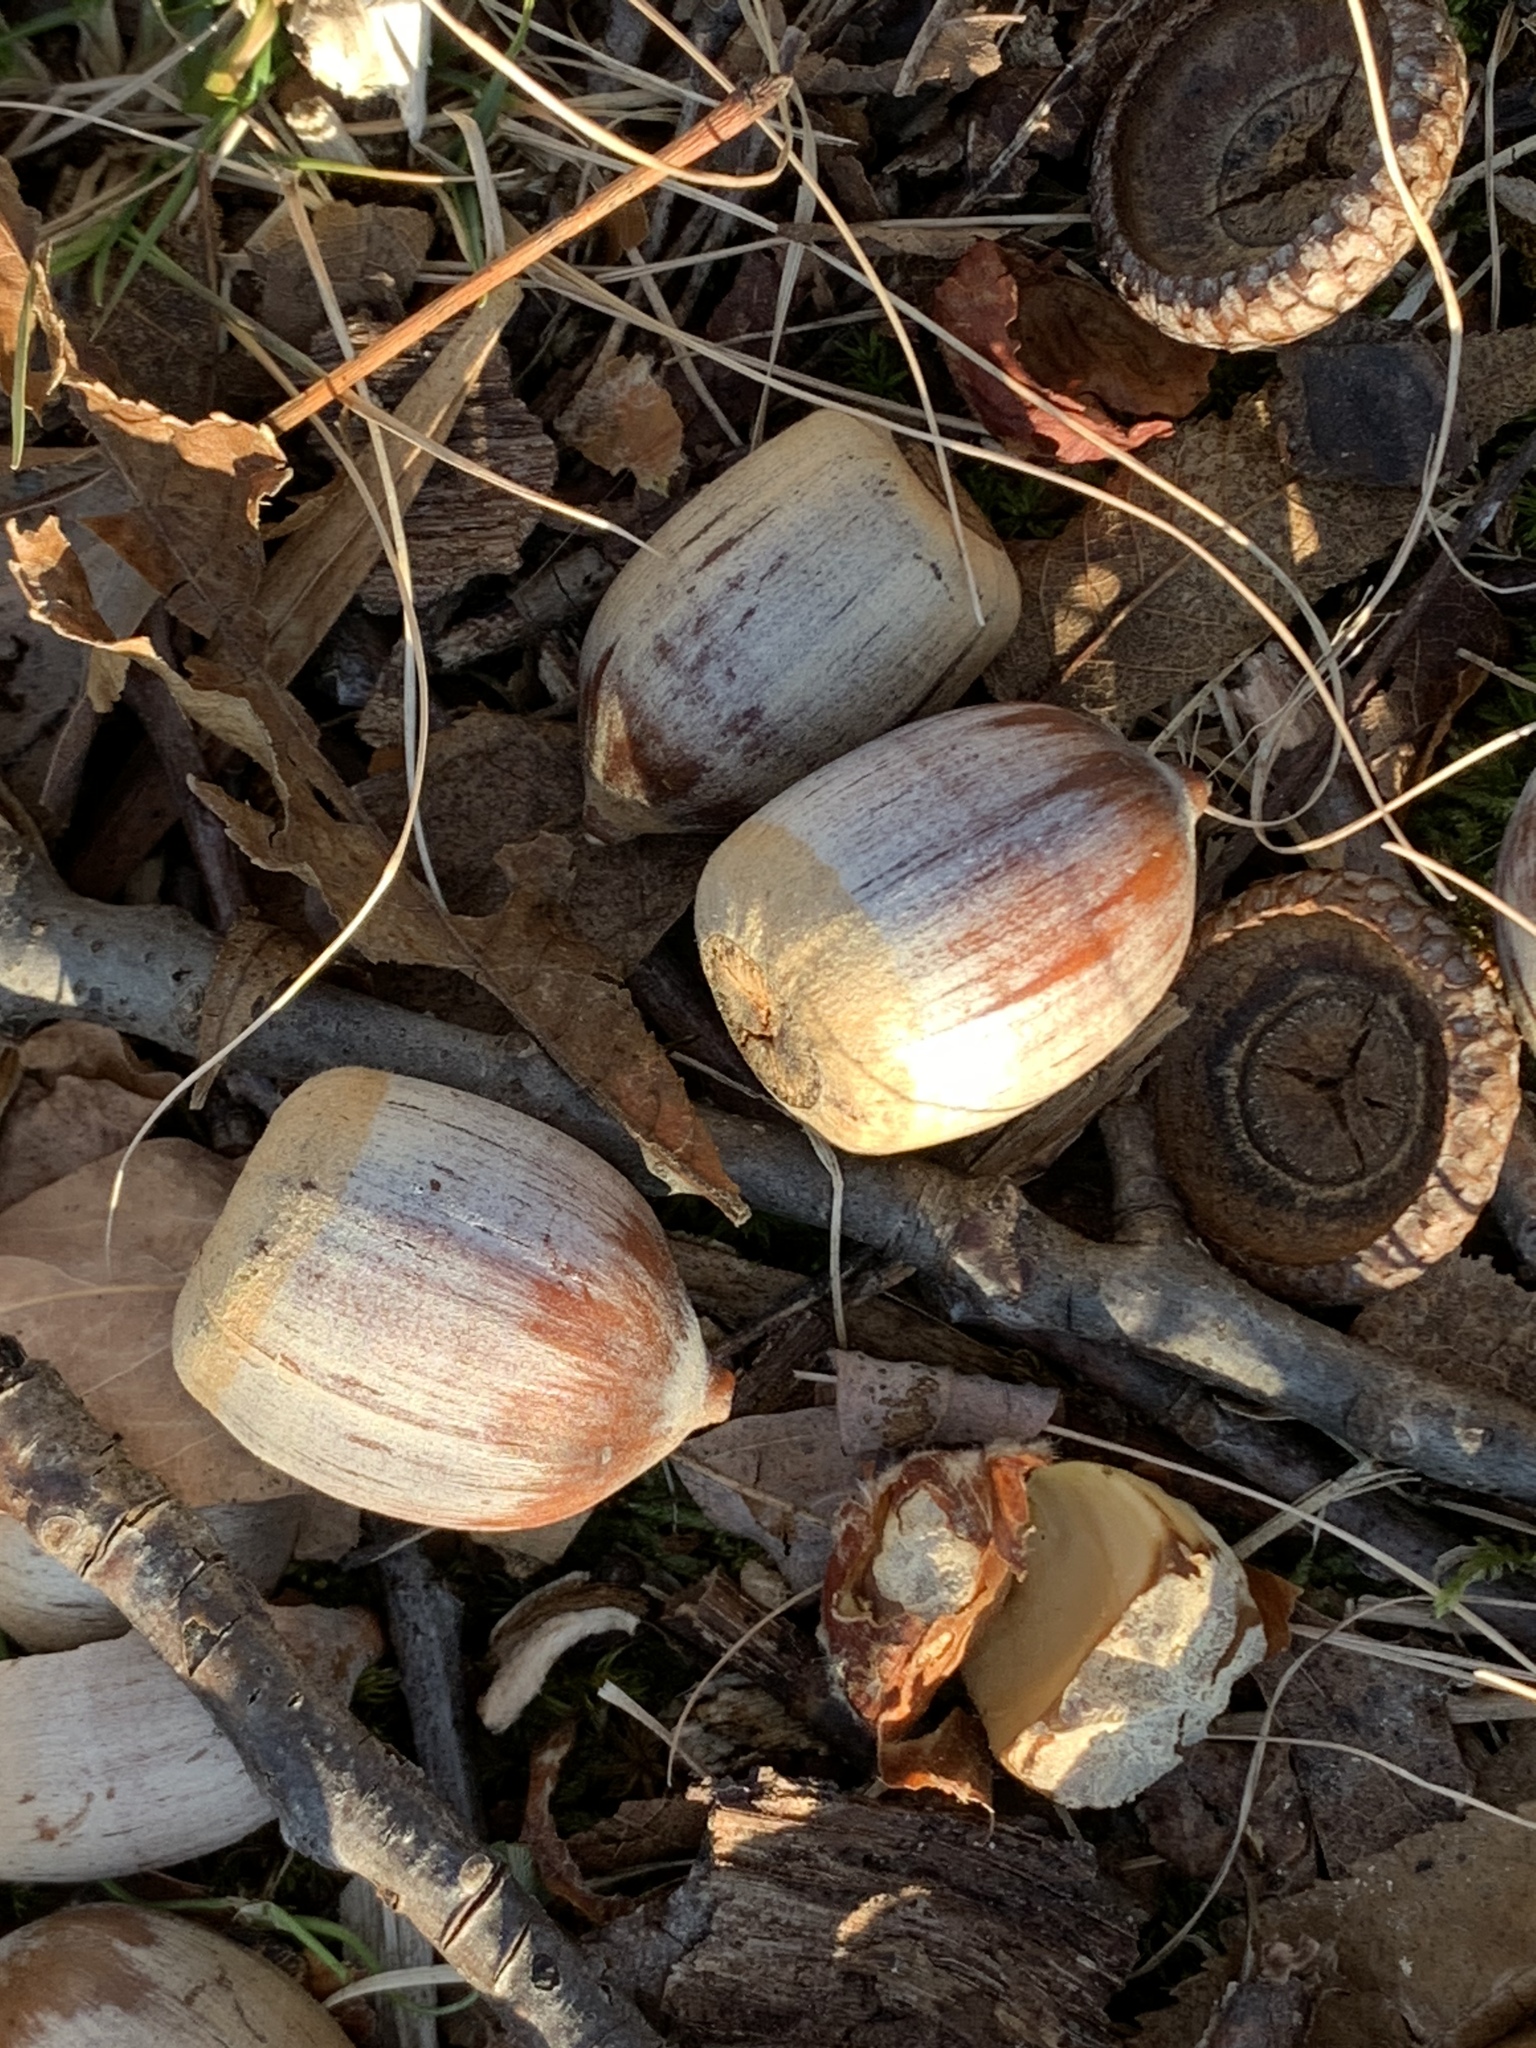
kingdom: Plantae
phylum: Tracheophyta
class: Magnoliopsida
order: Fagales
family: Fagaceae
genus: Quercus
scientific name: Quercus rubra
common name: Red oak
